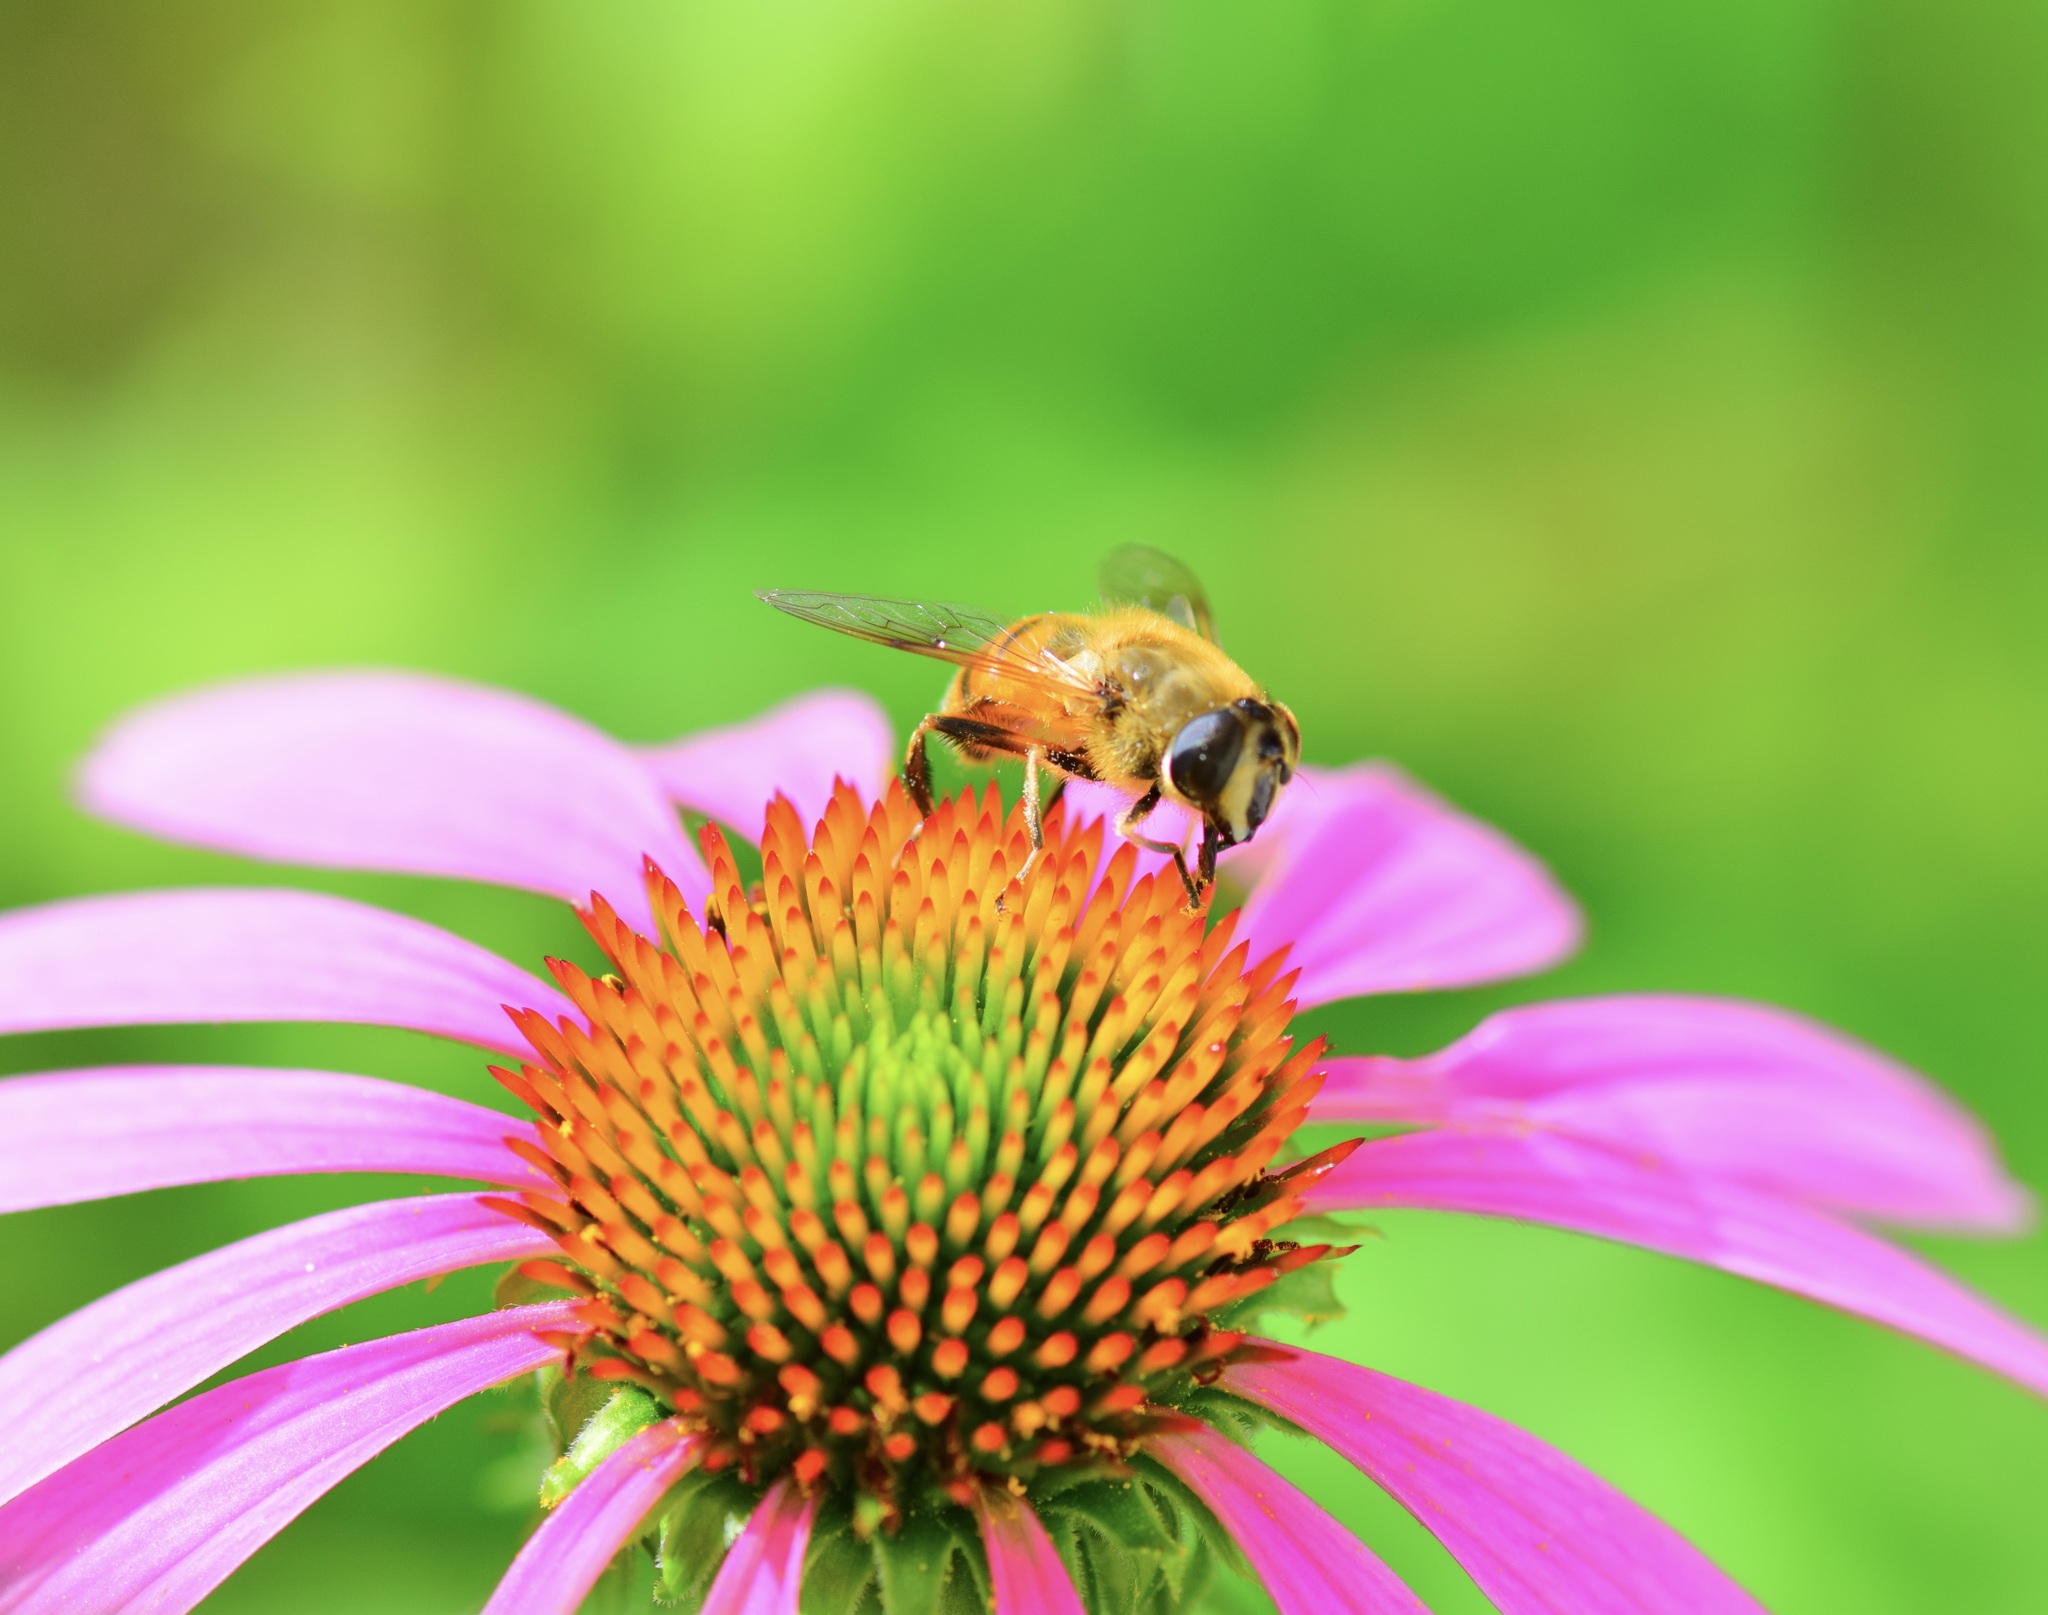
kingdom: Animalia
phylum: Arthropoda
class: Insecta
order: Diptera
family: Syrphidae
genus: Eristalis
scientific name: Eristalis tenax
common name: Drone fly
